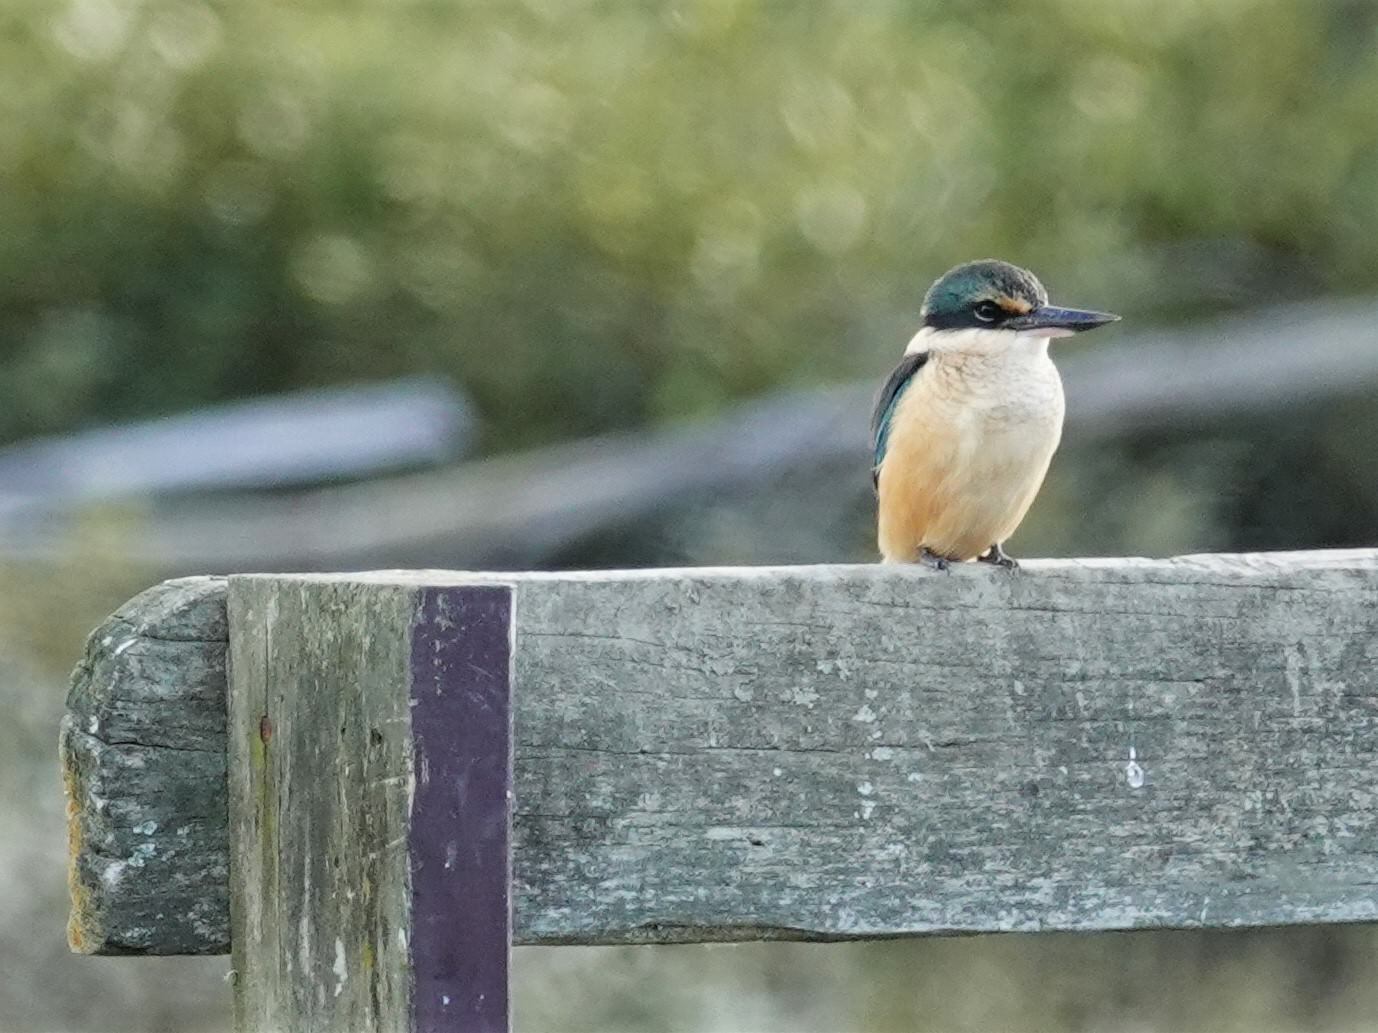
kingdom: Animalia
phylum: Chordata
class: Aves
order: Coraciiformes
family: Alcedinidae
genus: Todiramphus
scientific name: Todiramphus sanctus
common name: Sacred kingfisher
